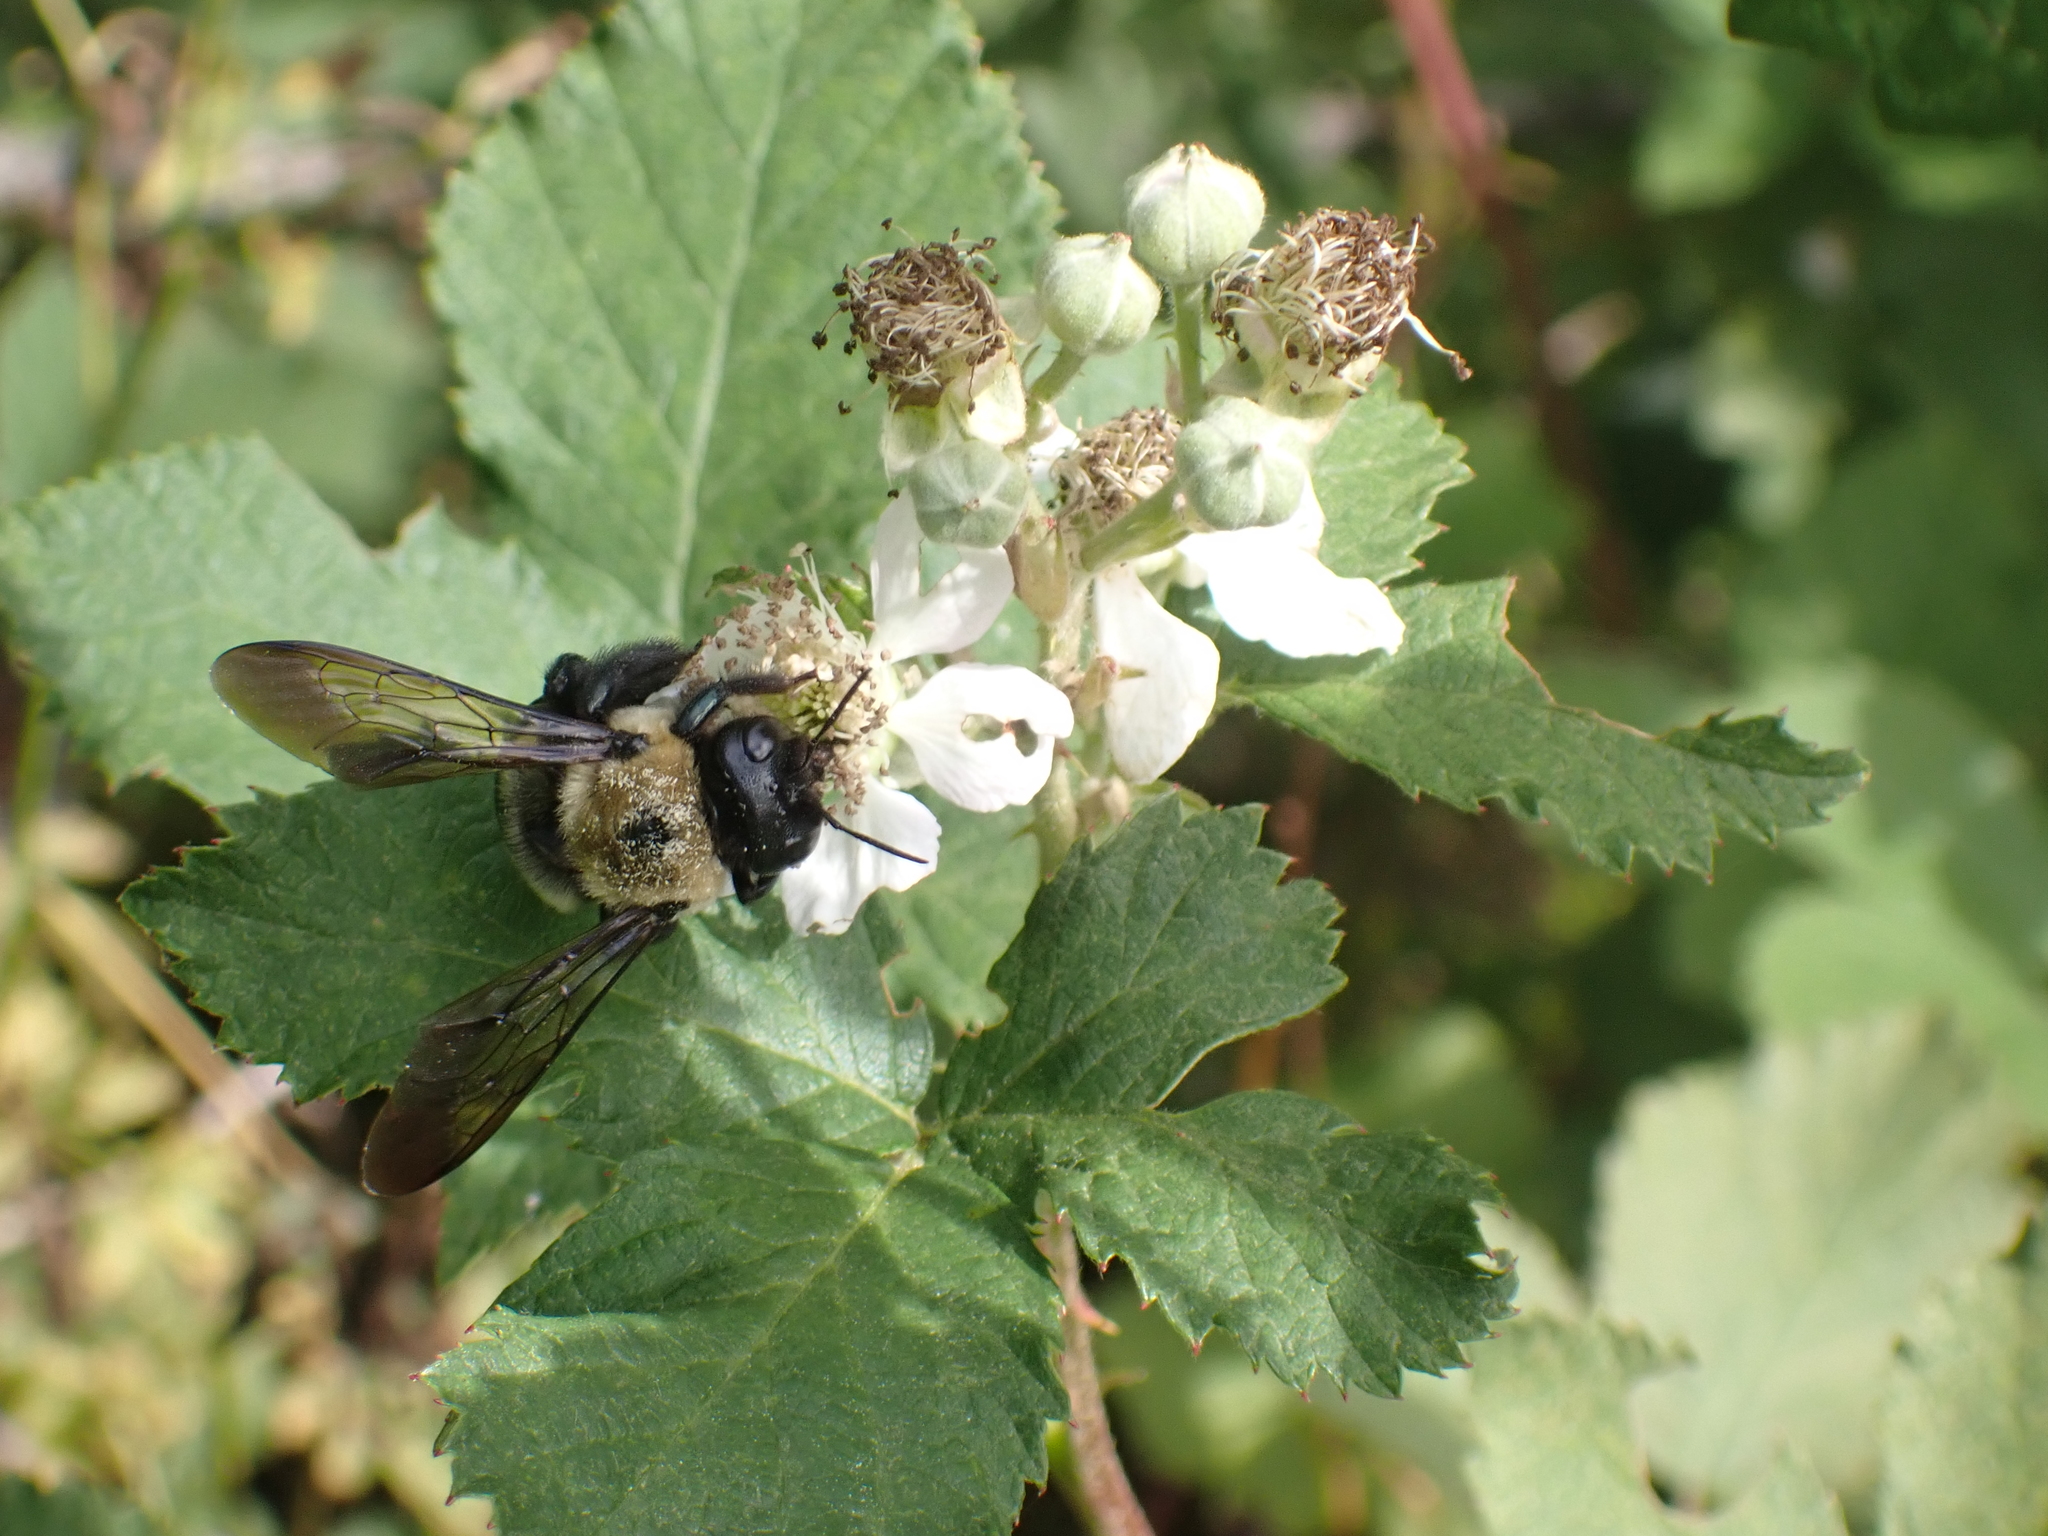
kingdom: Animalia
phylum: Arthropoda
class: Insecta
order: Hymenoptera
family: Apidae
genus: Xylocopa
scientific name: Xylocopa virginica
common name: Carpenter bee
